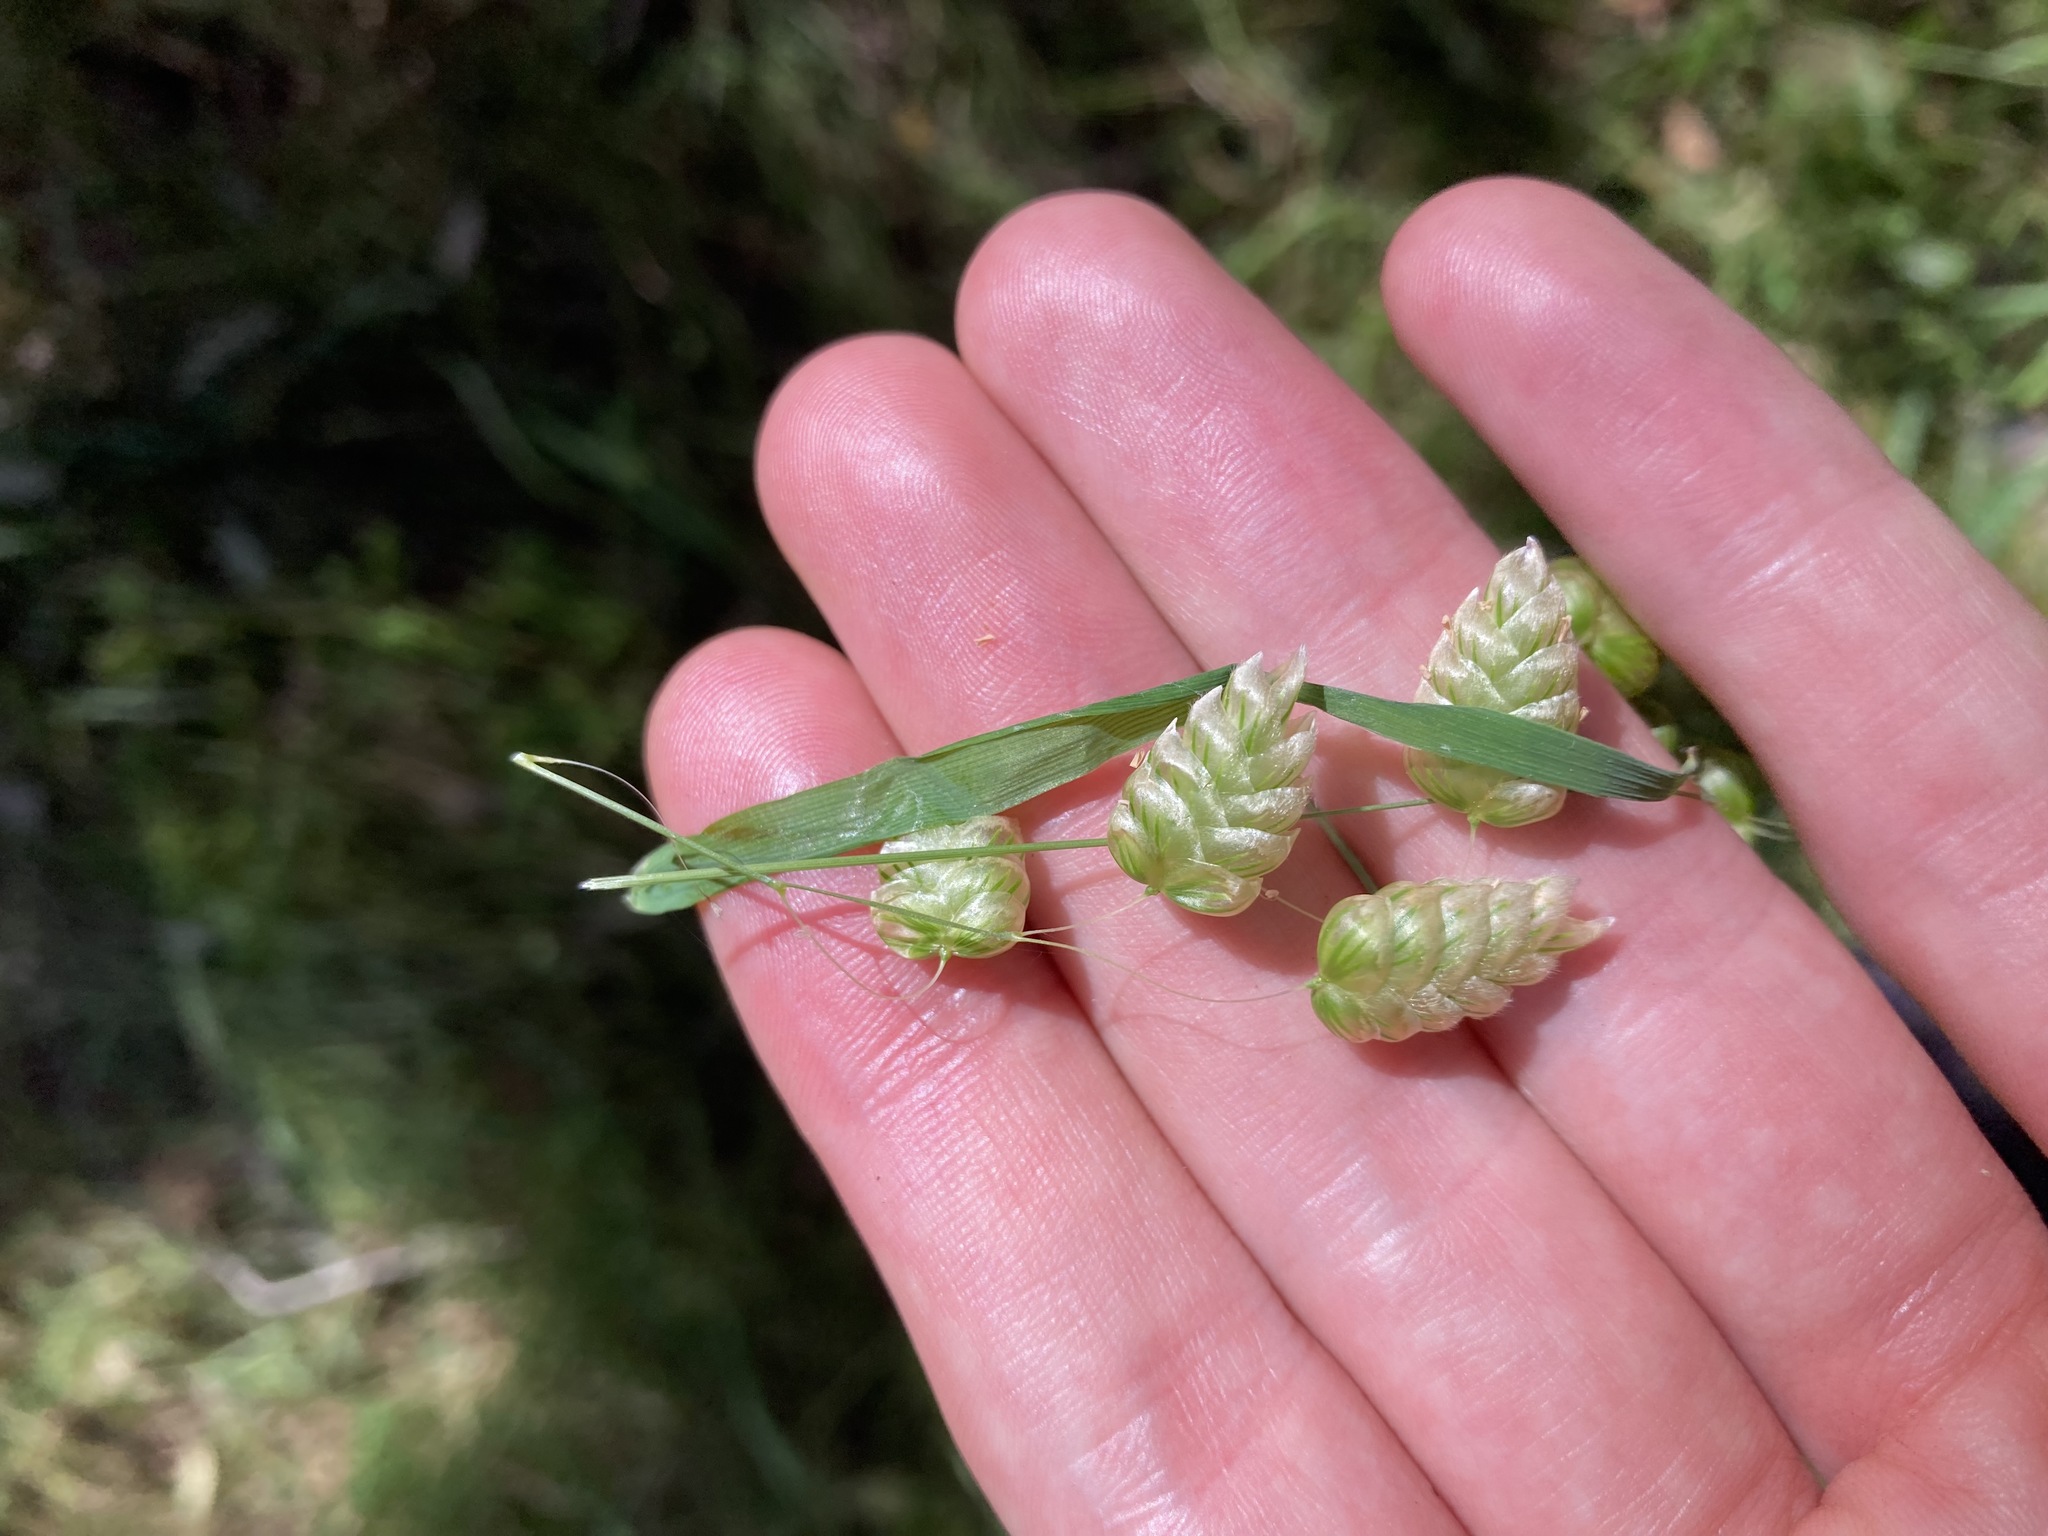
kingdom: Plantae
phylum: Tracheophyta
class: Liliopsida
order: Poales
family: Poaceae
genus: Briza
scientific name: Briza maxima
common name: Big quakinggrass
